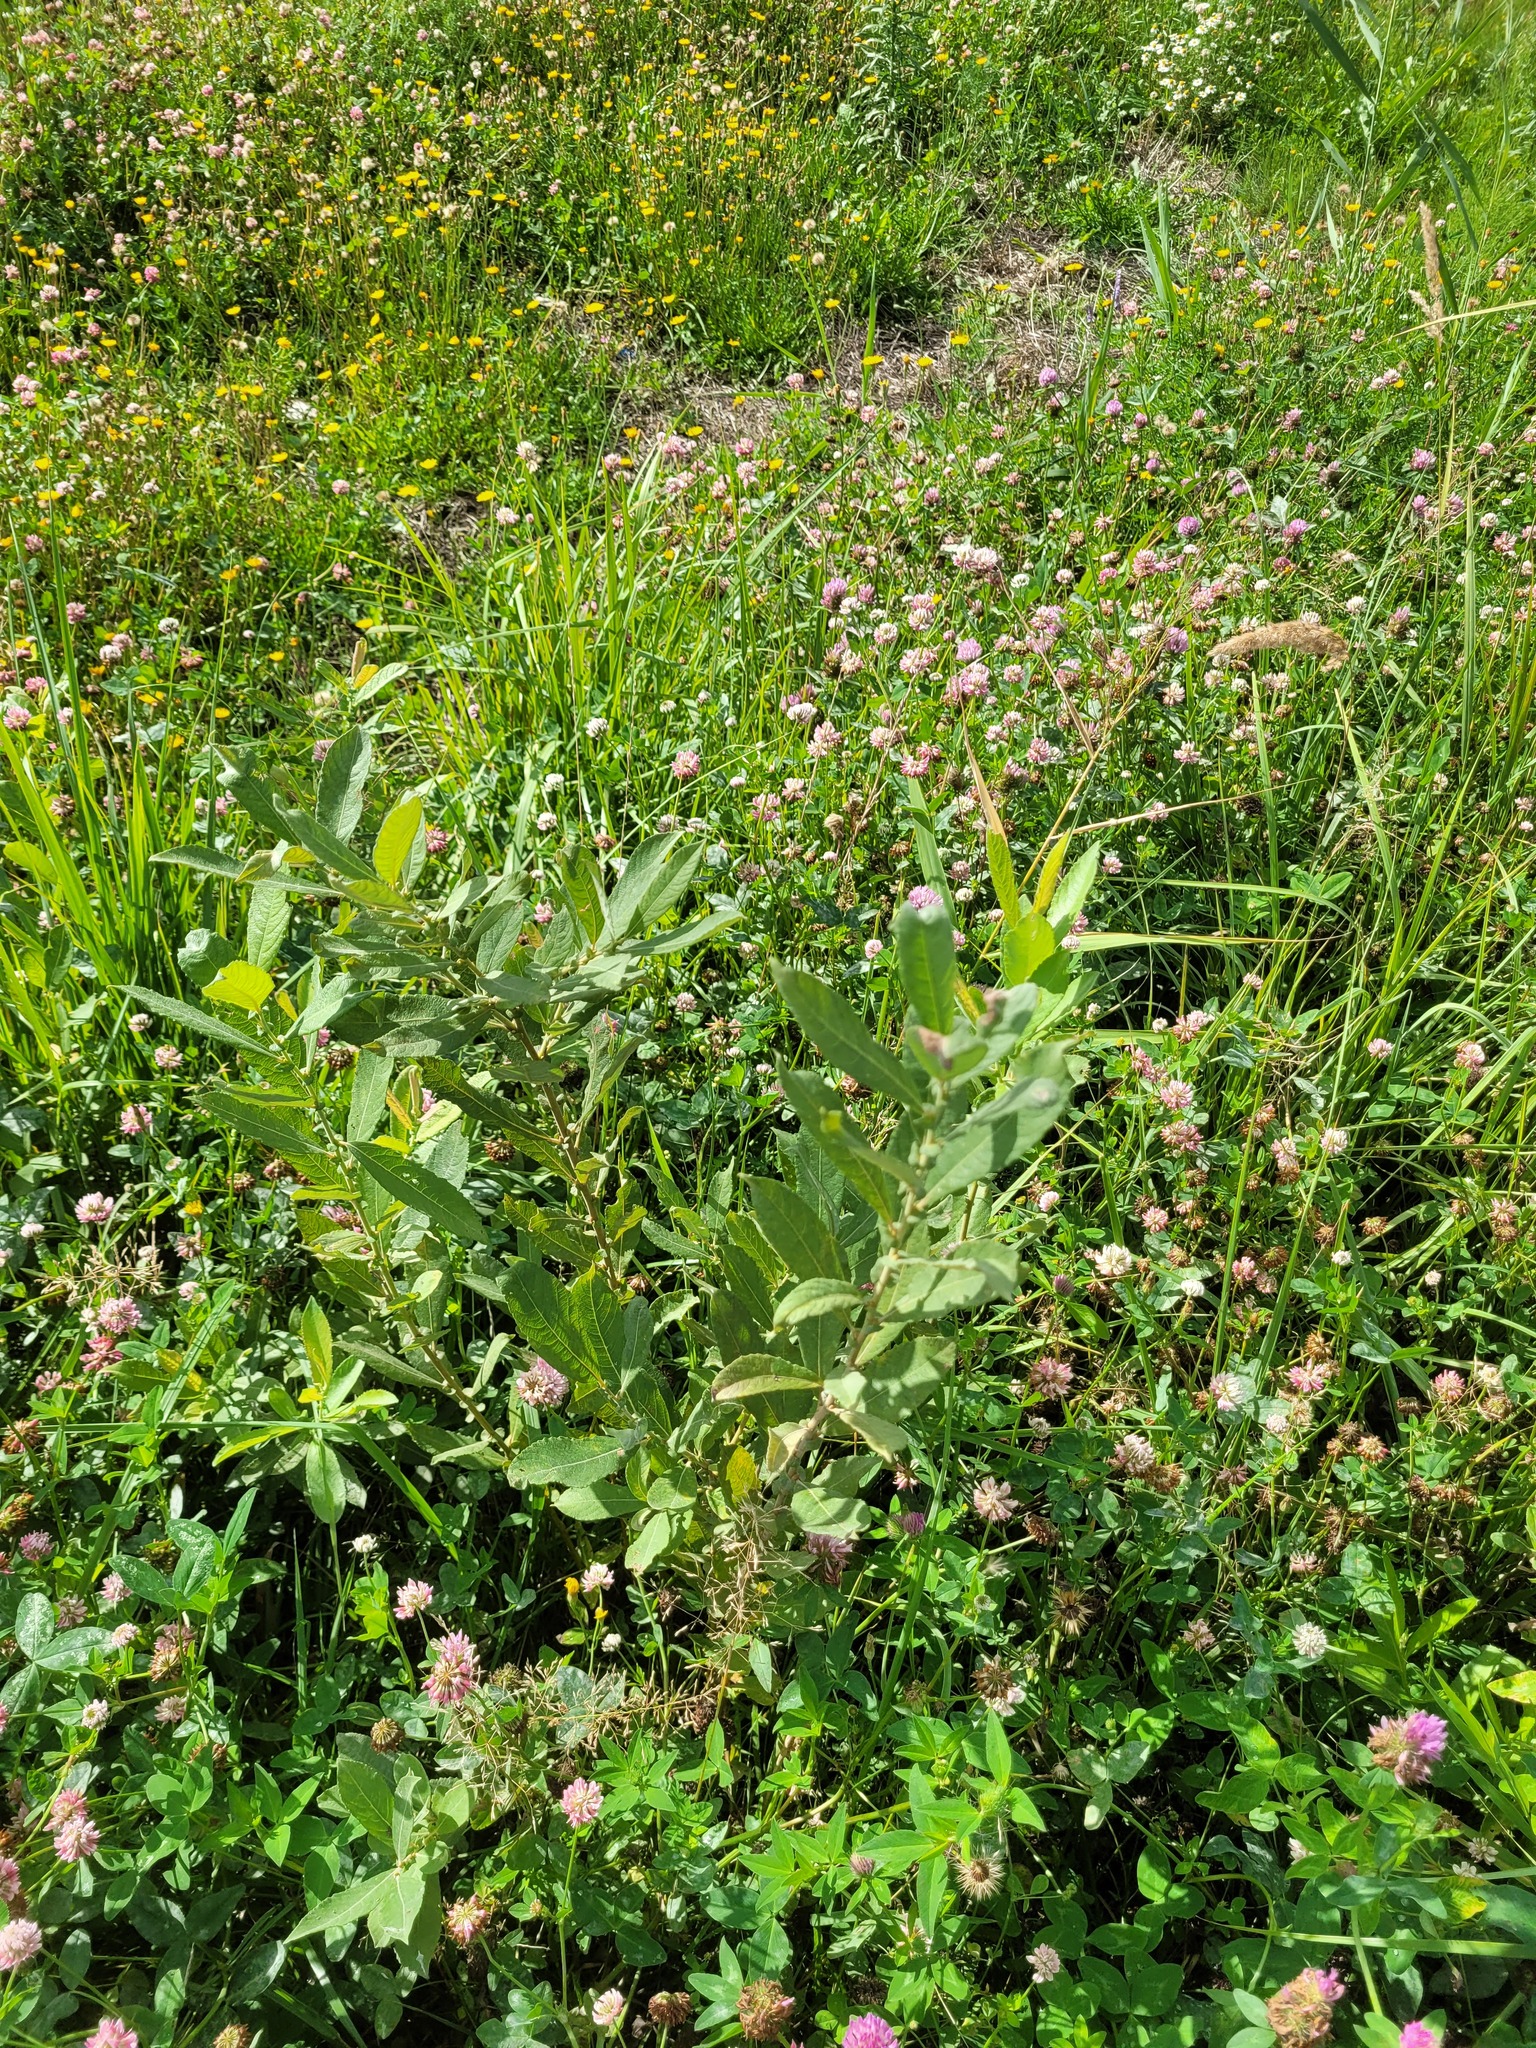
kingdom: Plantae
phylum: Tracheophyta
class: Magnoliopsida
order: Malpighiales
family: Salicaceae
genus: Salix
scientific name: Salix cinerea
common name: Common sallow
